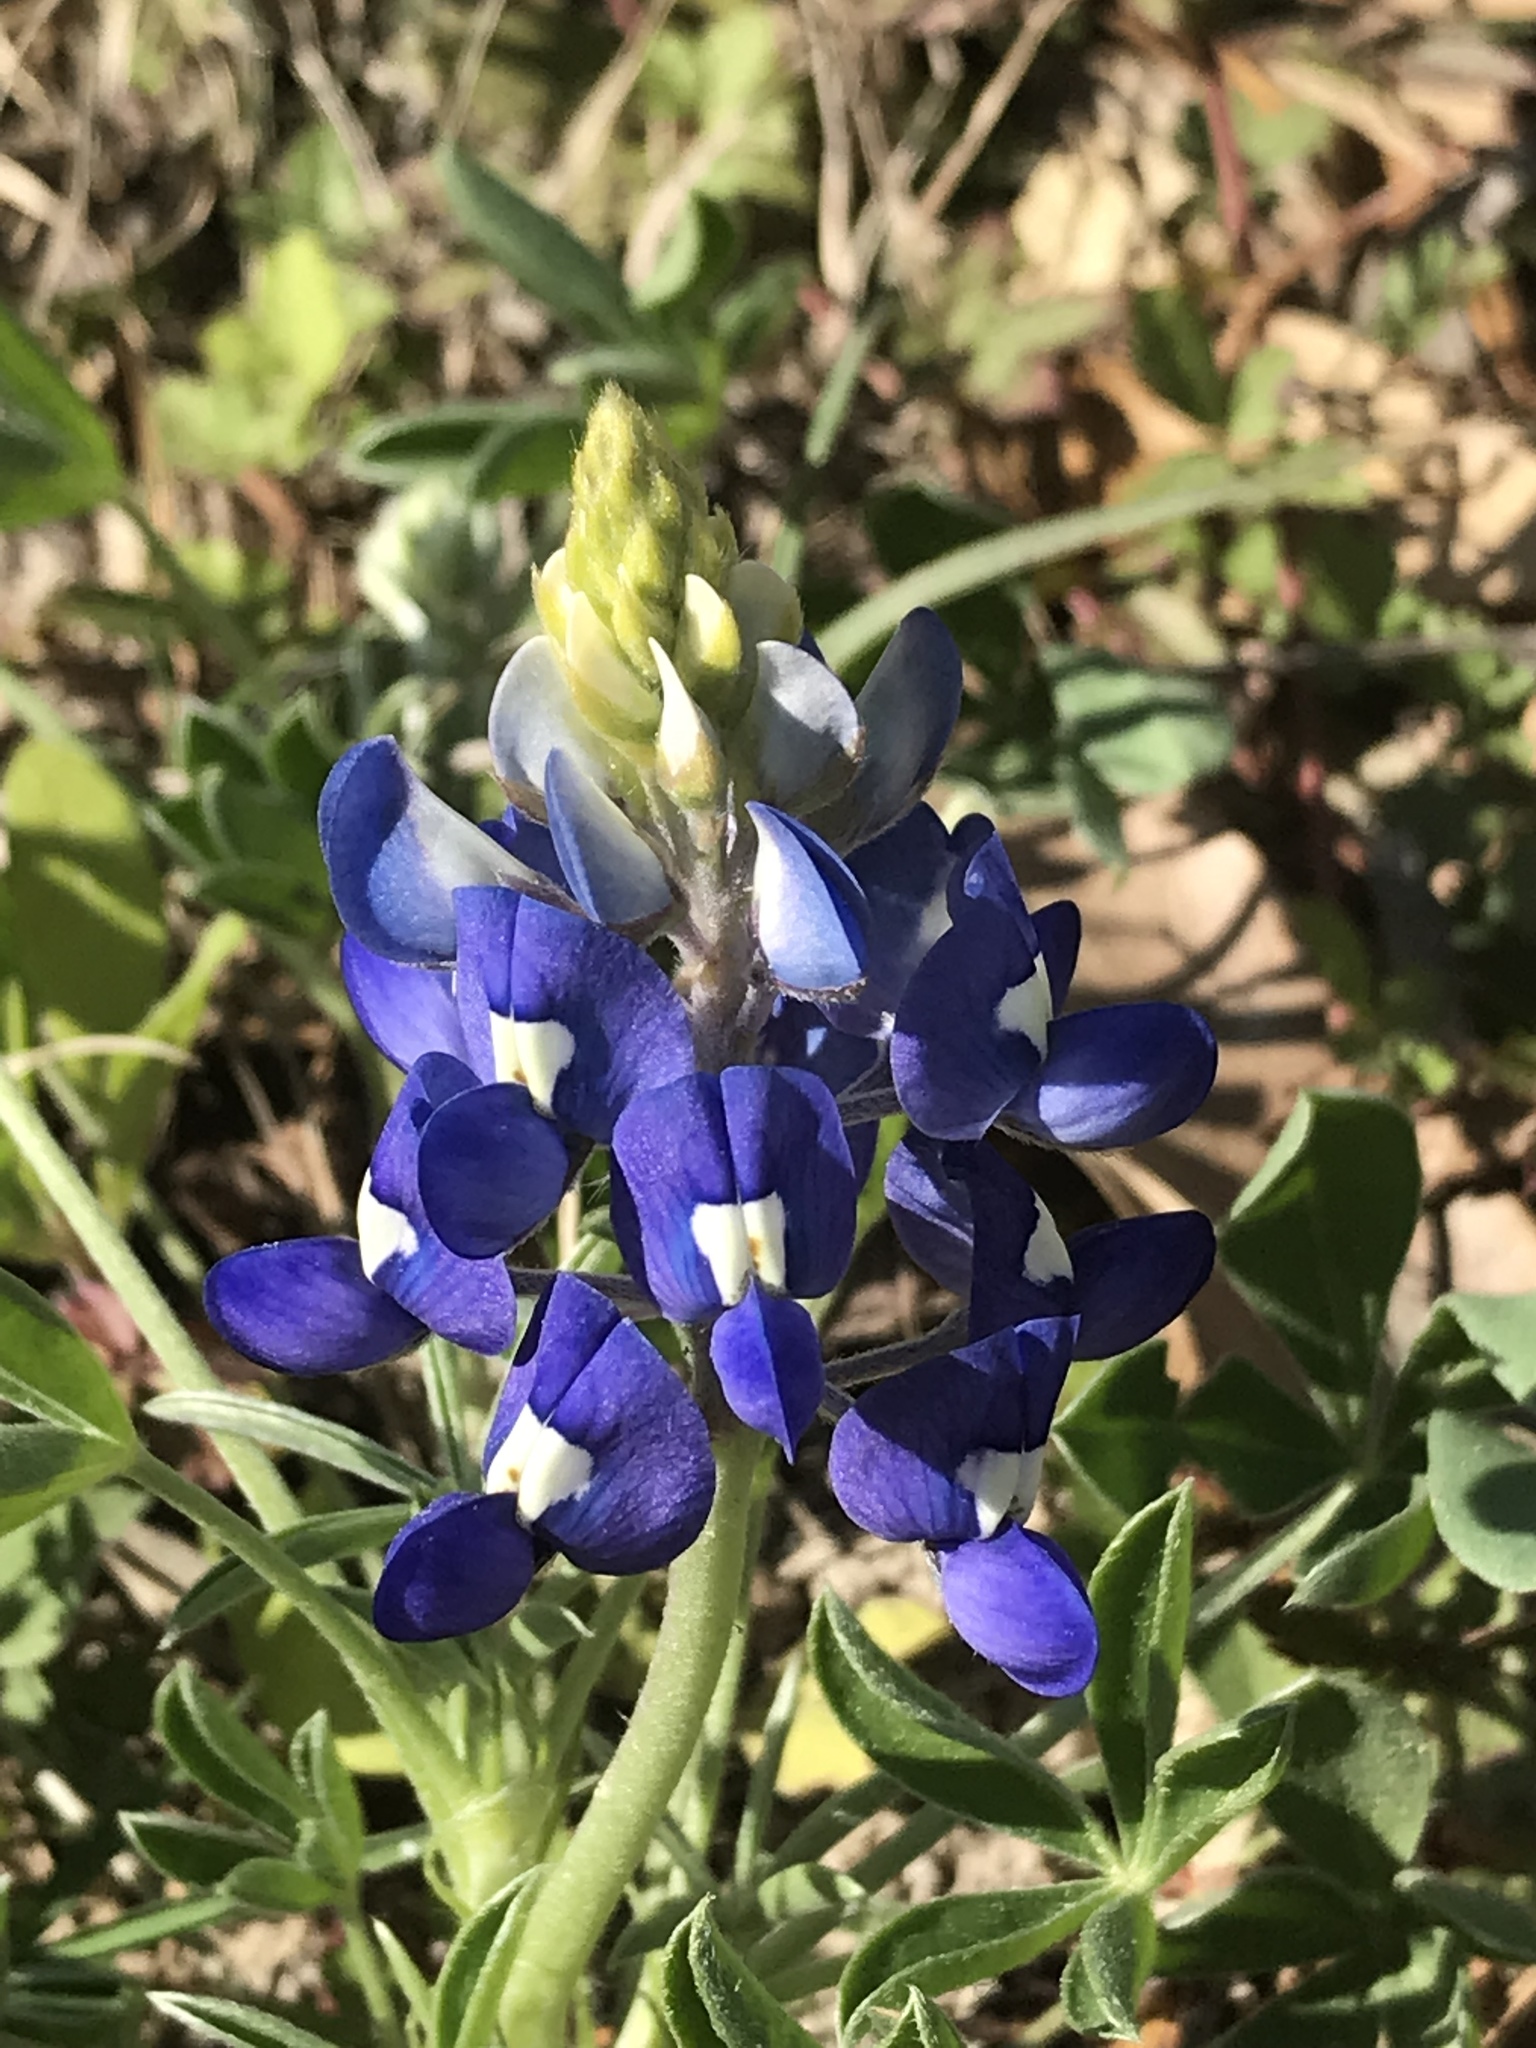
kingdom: Plantae
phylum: Tracheophyta
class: Magnoliopsida
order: Fabales
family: Fabaceae
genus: Lupinus
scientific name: Lupinus texensis
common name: Texas bluebonnet
